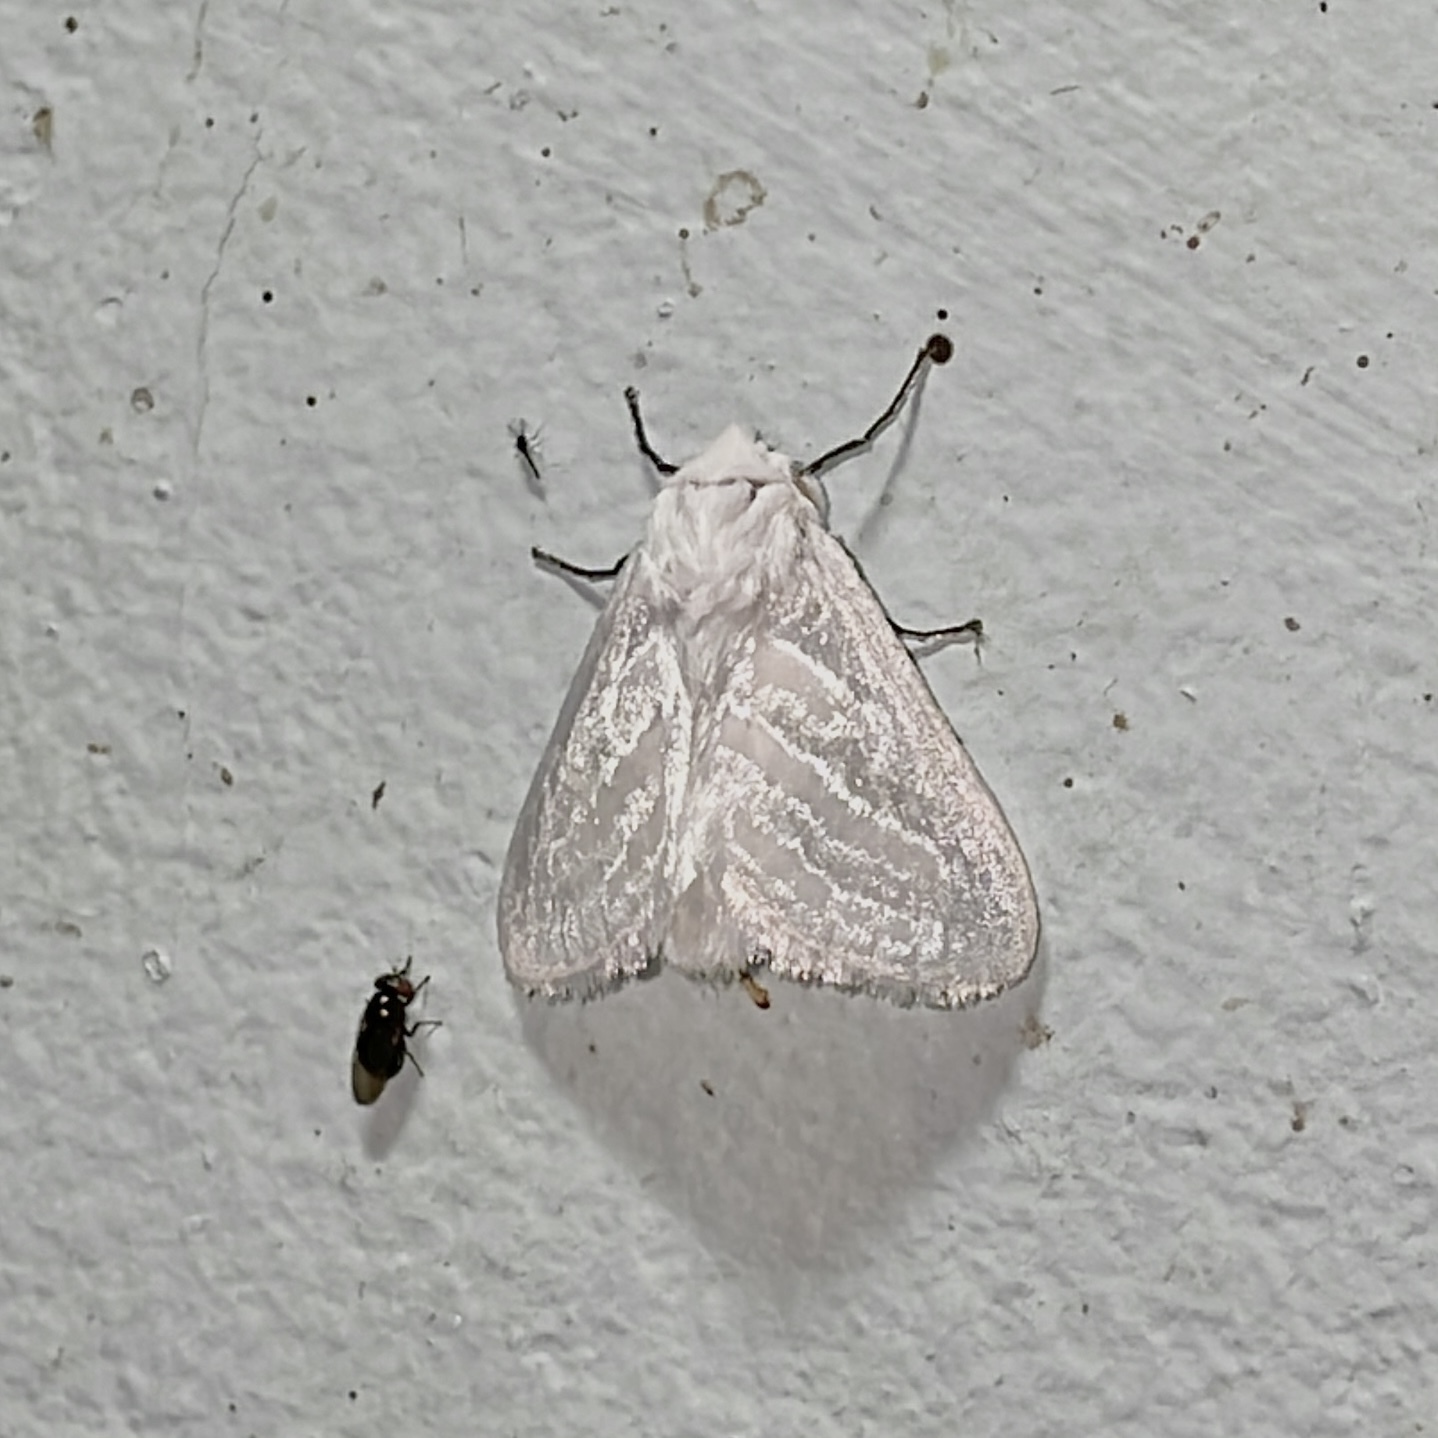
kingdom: Animalia
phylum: Arthropoda
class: Insecta
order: Lepidoptera
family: Megalopygidae
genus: Macara
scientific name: Macara nigripes
